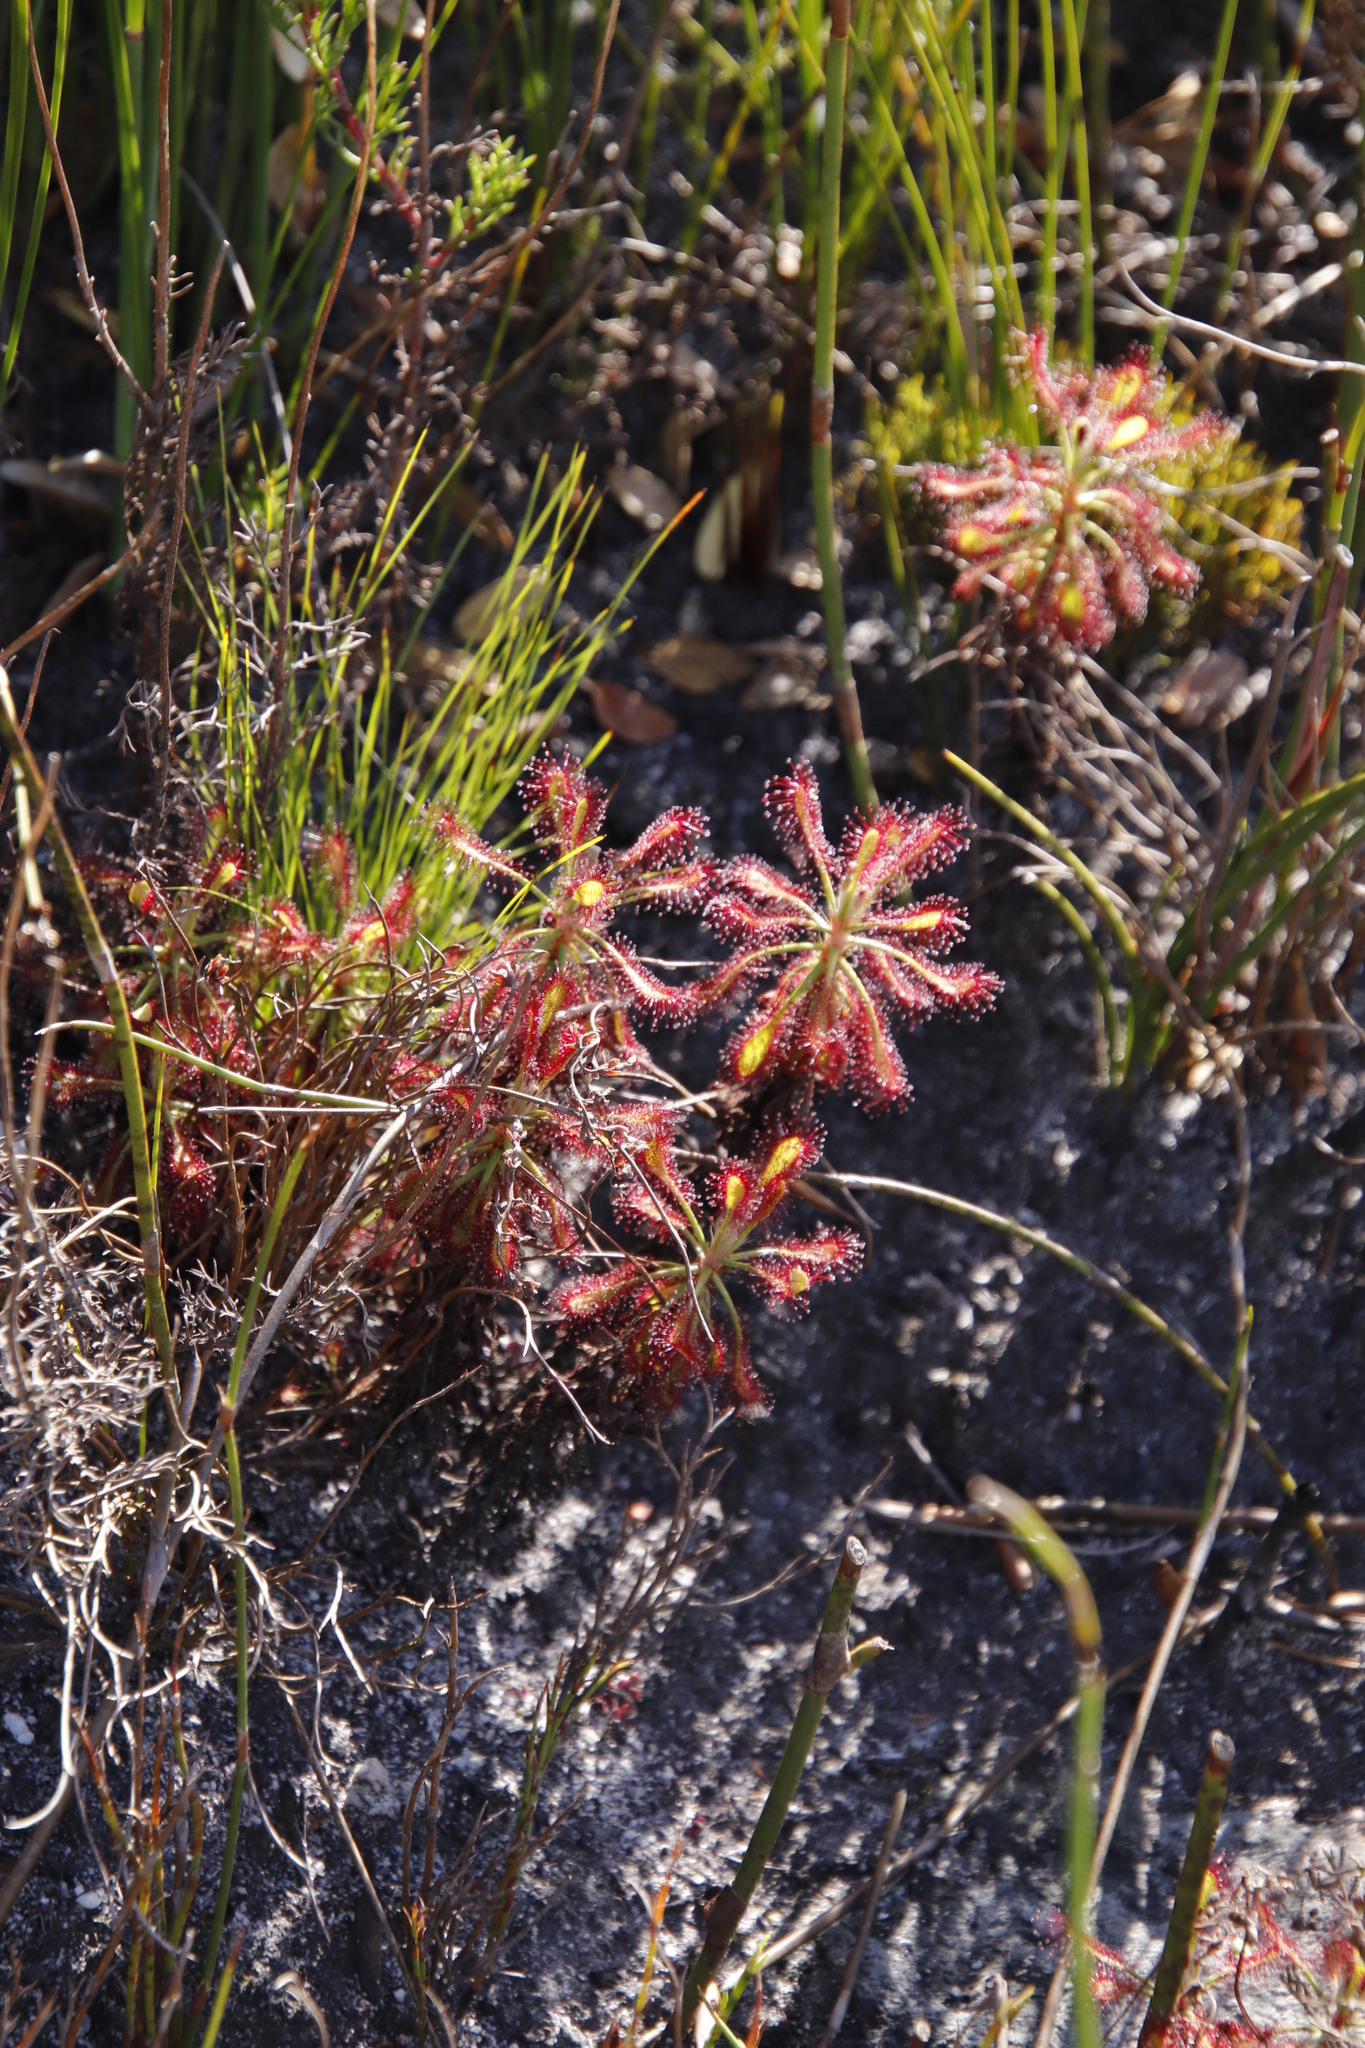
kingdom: Plantae
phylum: Tracheophyta
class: Magnoliopsida
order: Caryophyllales
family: Droseraceae
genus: Drosera
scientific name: Drosera glabripes
